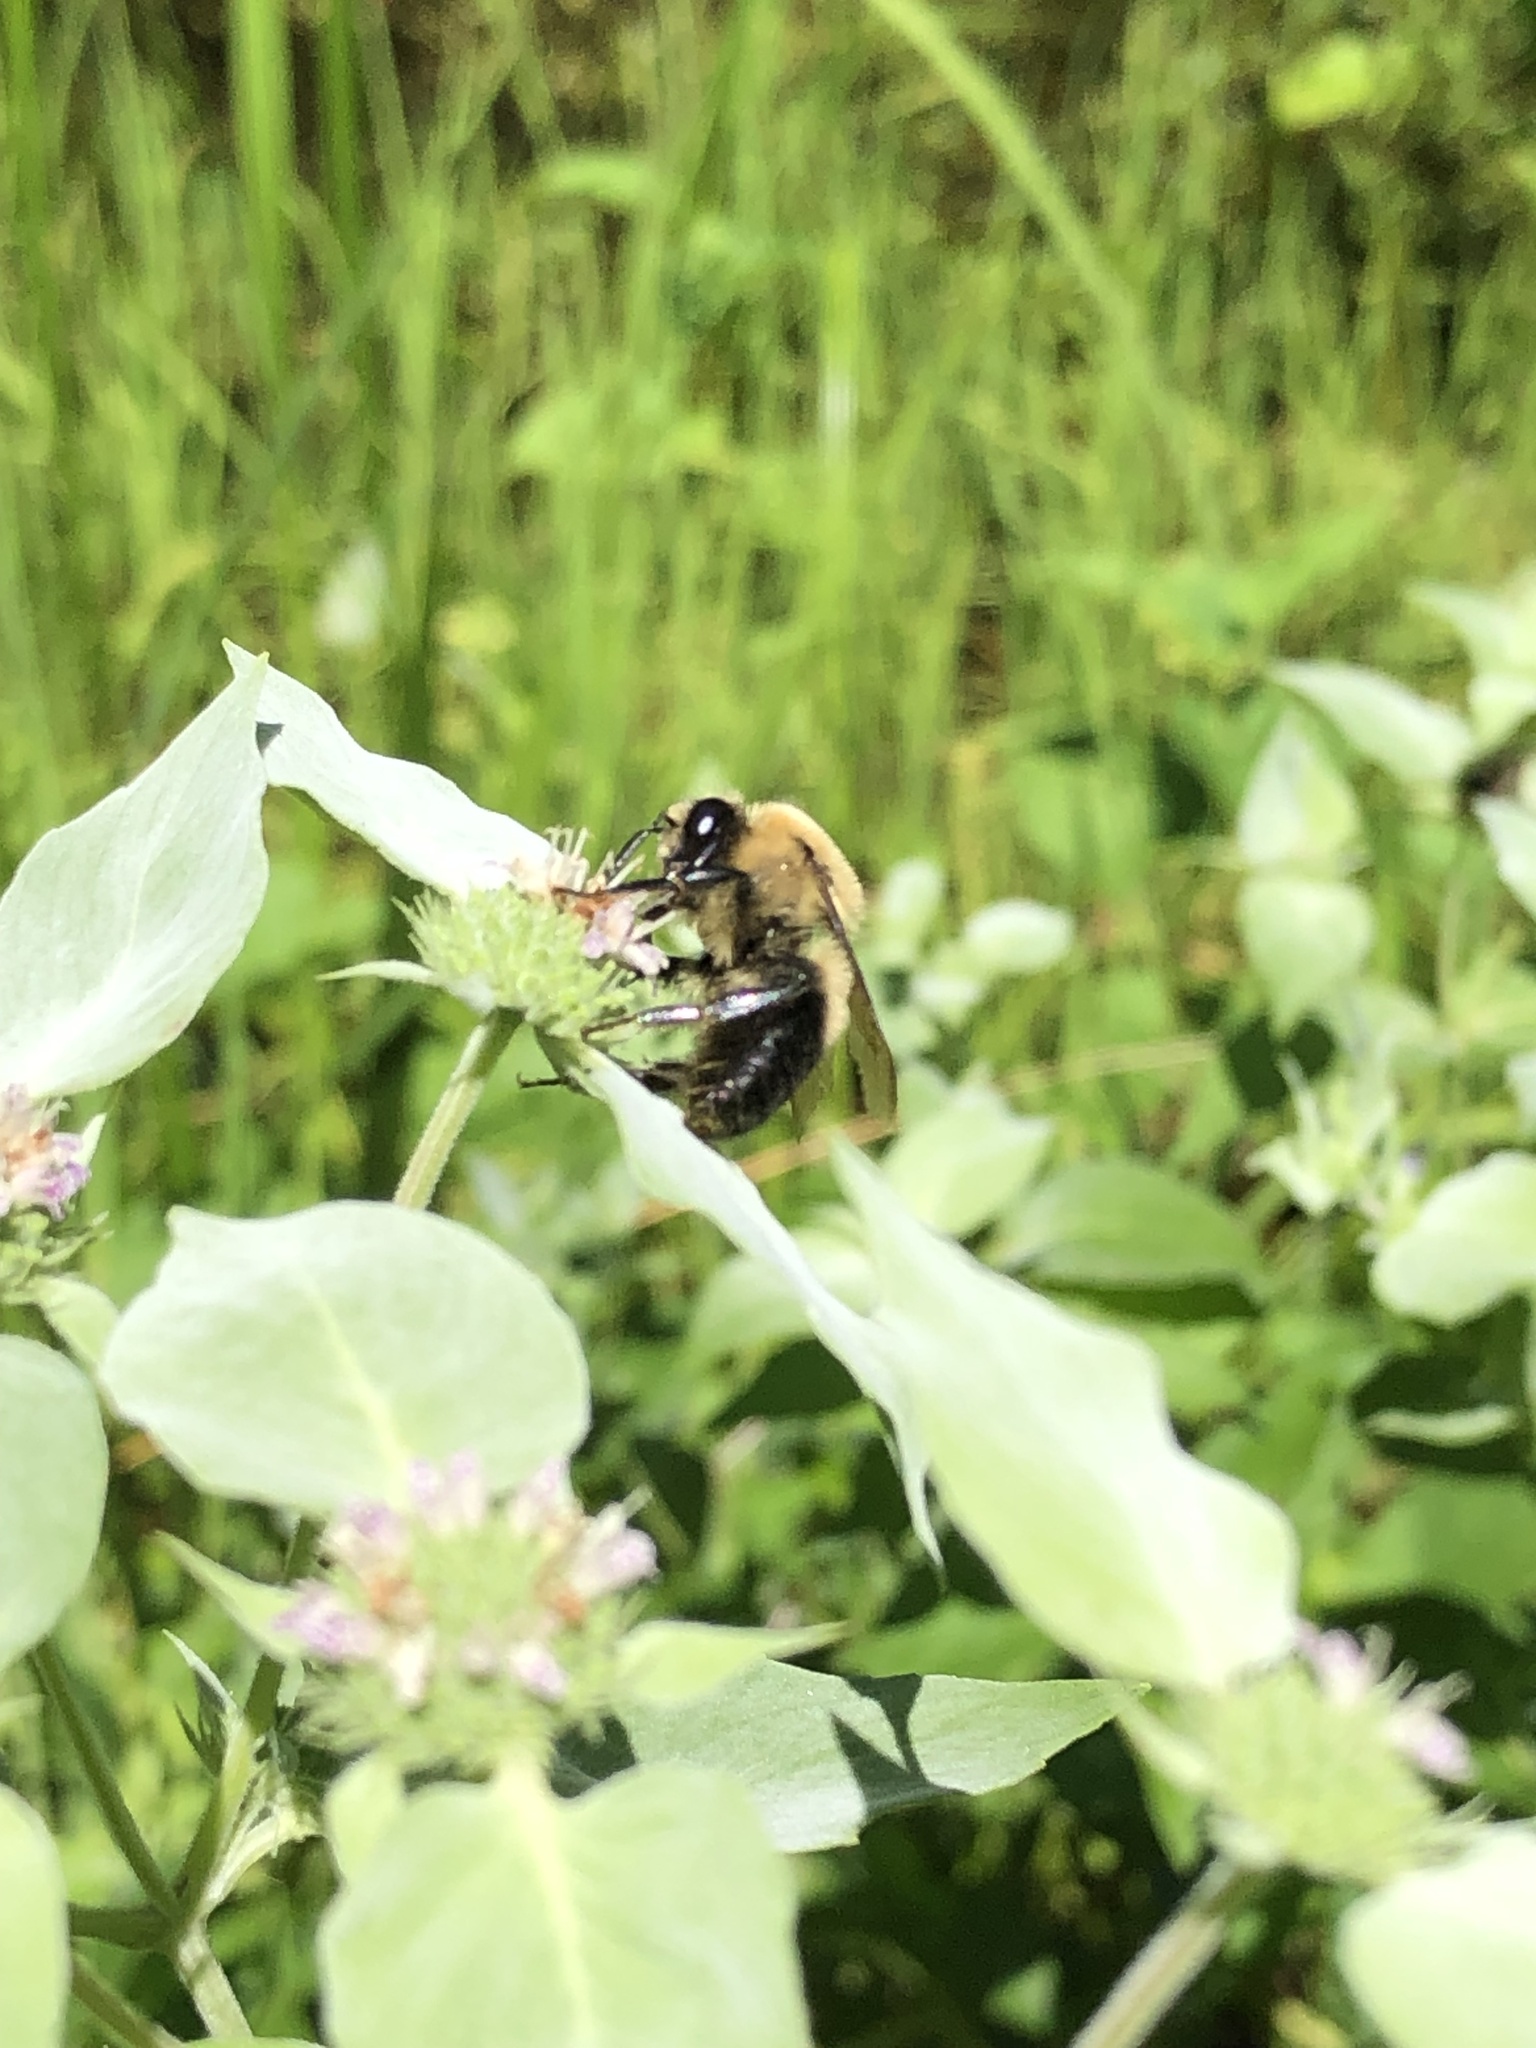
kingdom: Animalia
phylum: Arthropoda
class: Insecta
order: Hymenoptera
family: Apidae
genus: Bombus
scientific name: Bombus griseocollis
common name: Brown-belted bumble bee
